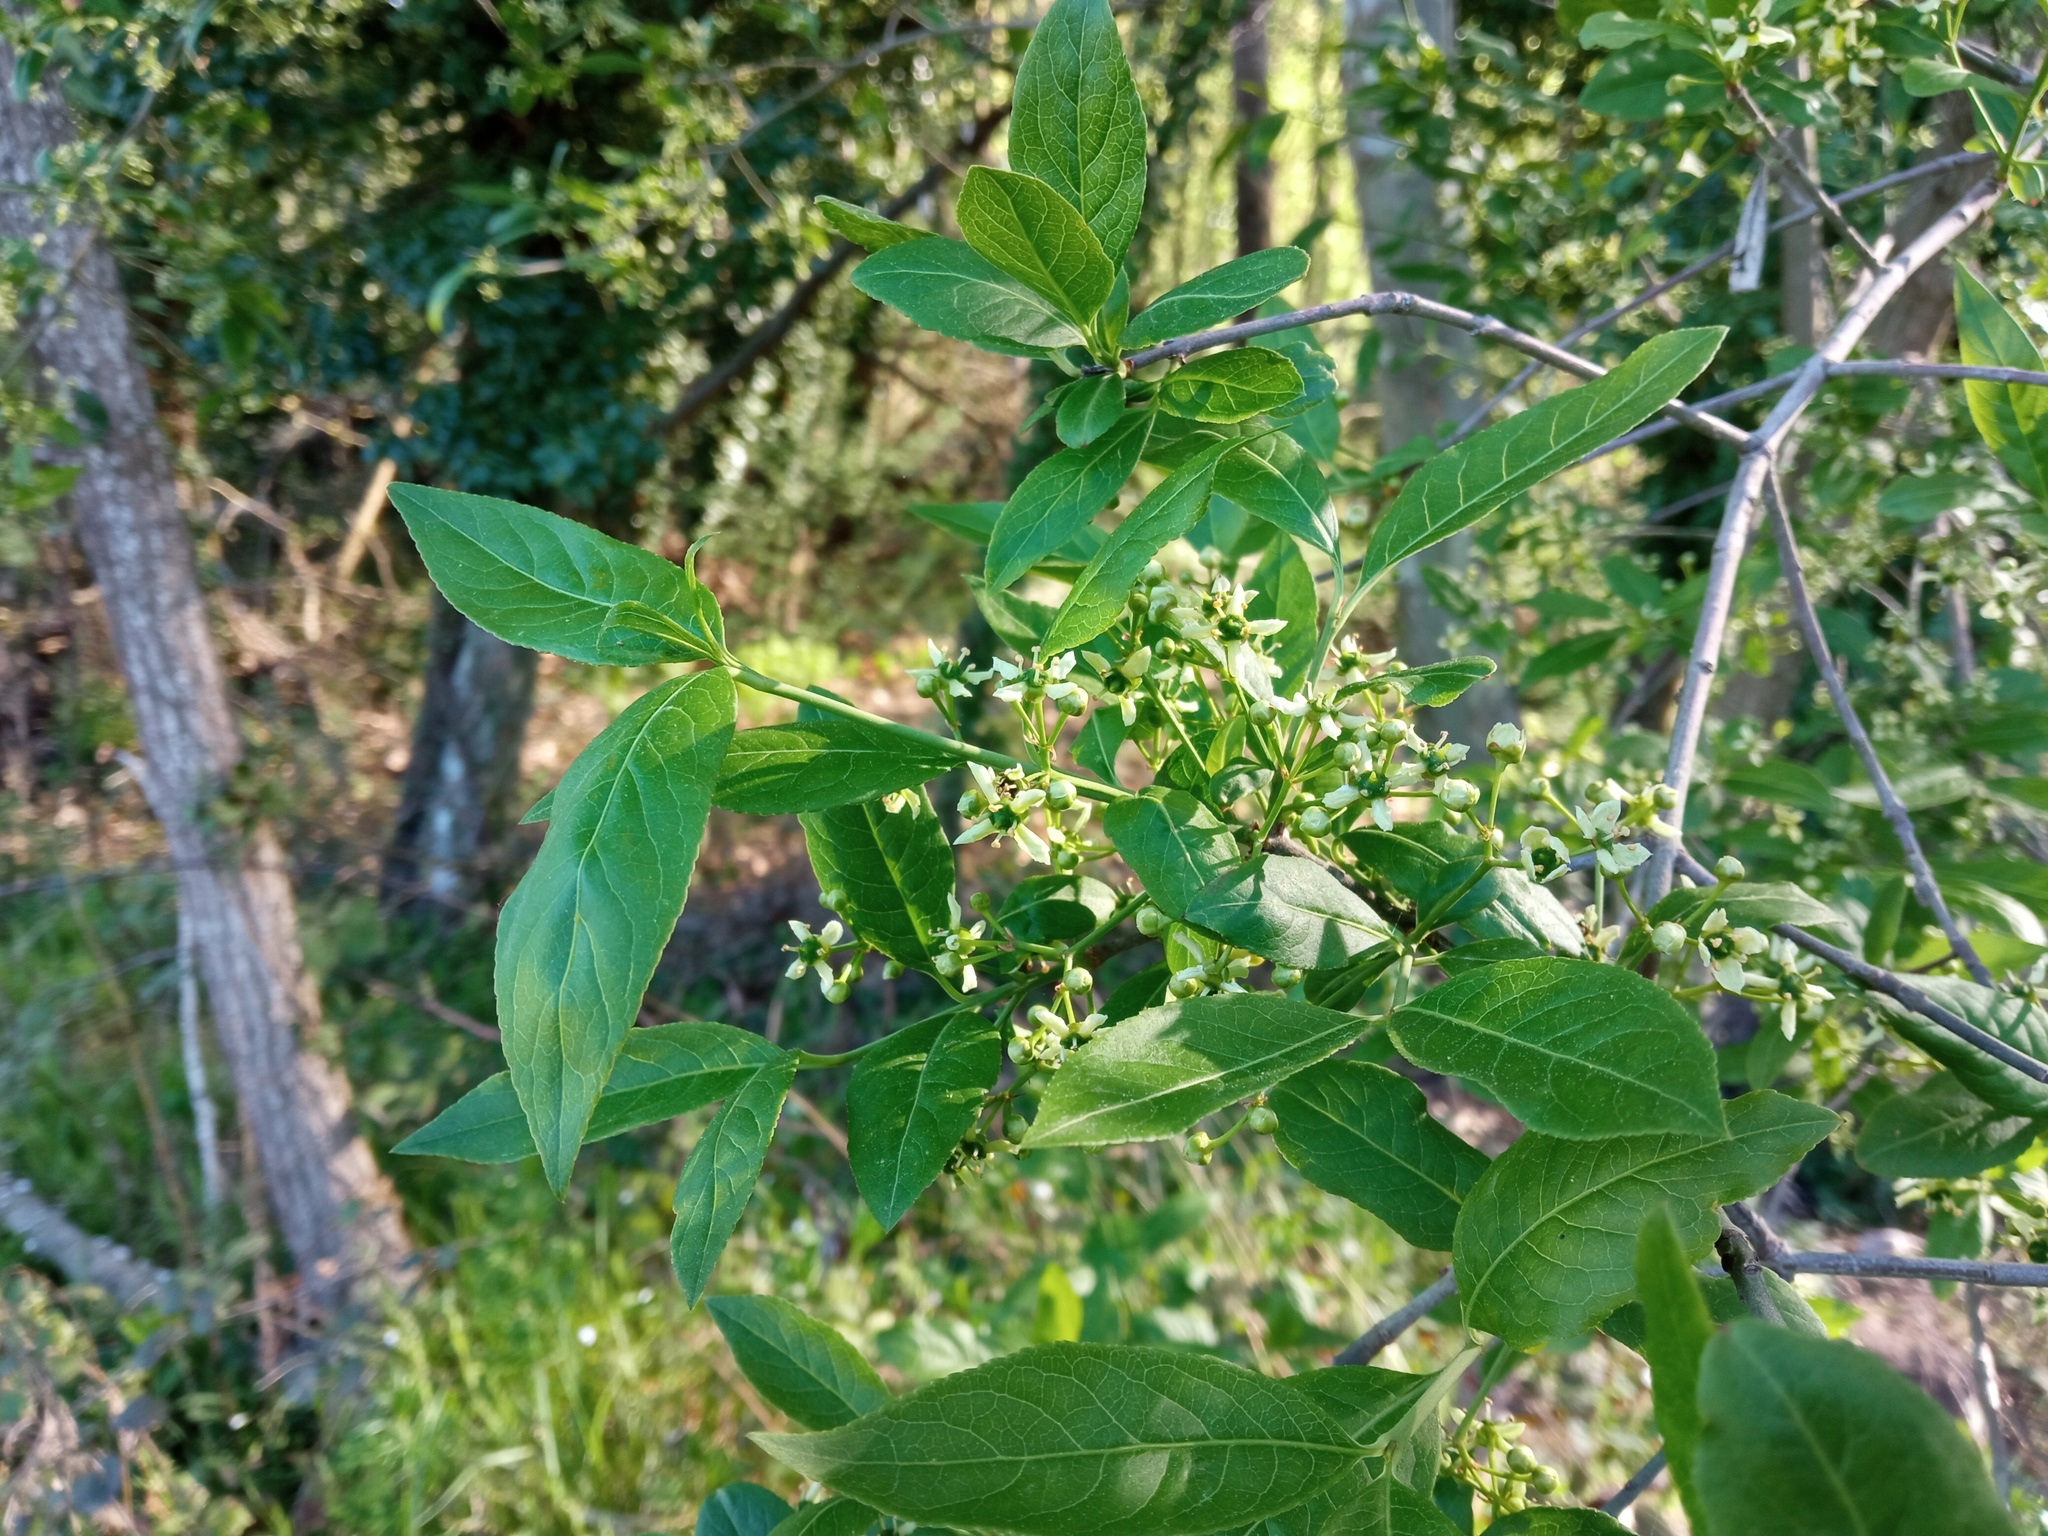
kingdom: Plantae
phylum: Tracheophyta
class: Magnoliopsida
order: Celastrales
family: Celastraceae
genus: Euonymus
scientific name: Euonymus europaeus
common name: Spindle
